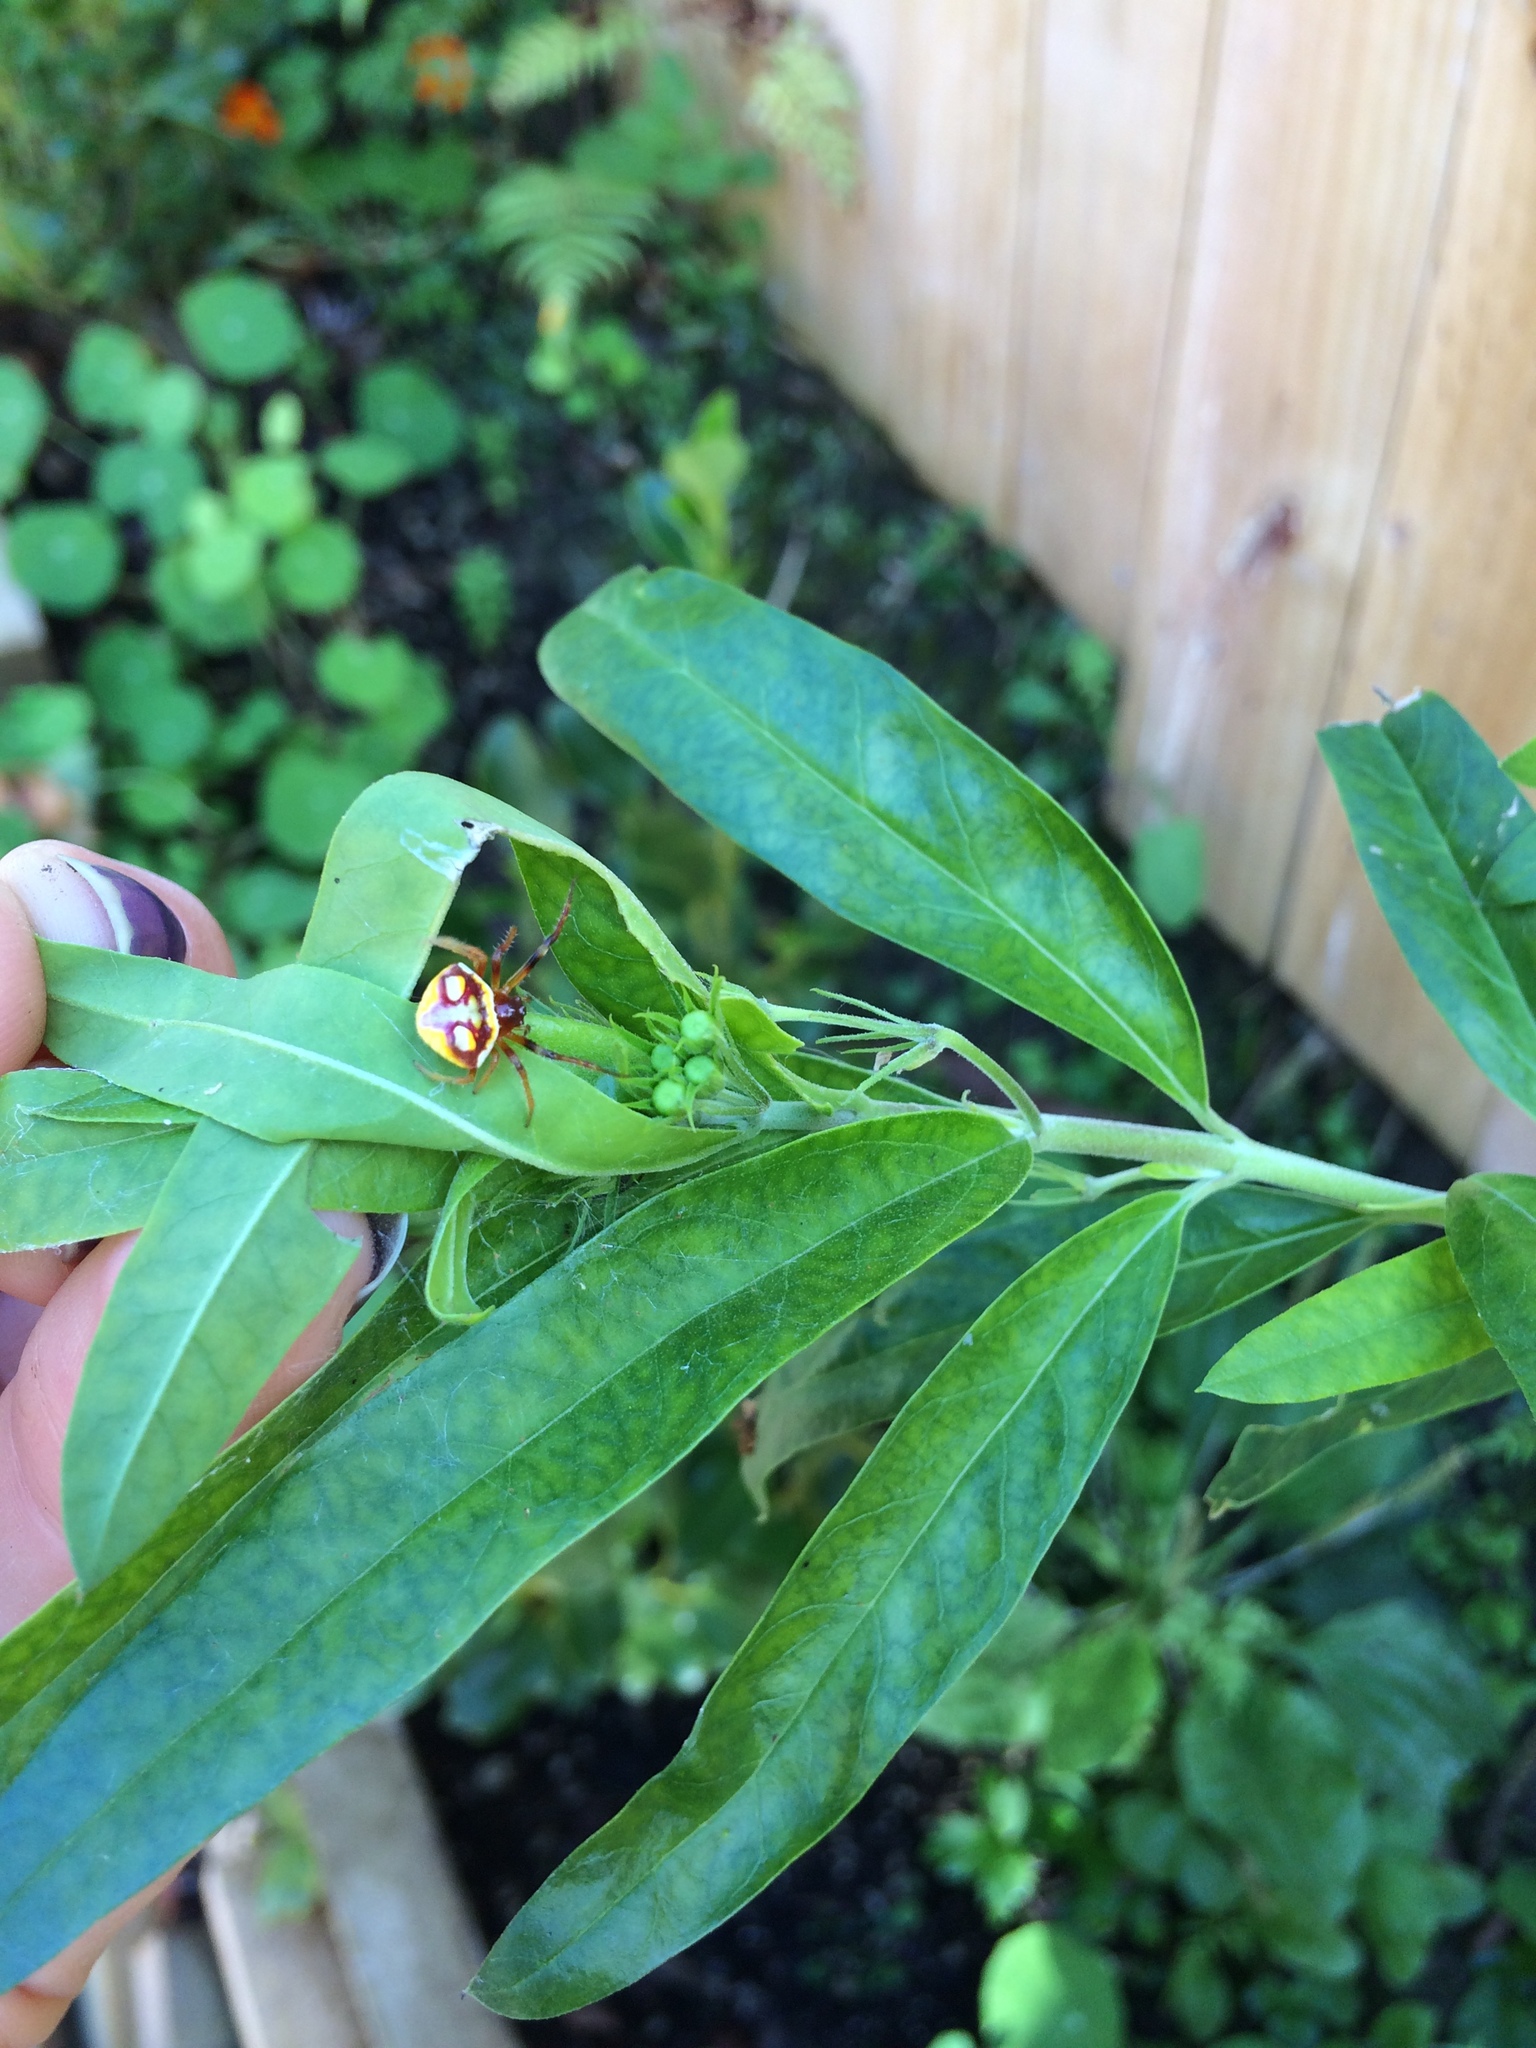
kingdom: Animalia
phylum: Arthropoda
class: Arachnida
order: Araneae
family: Araneidae
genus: Poecilopachys
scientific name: Poecilopachys australasia
